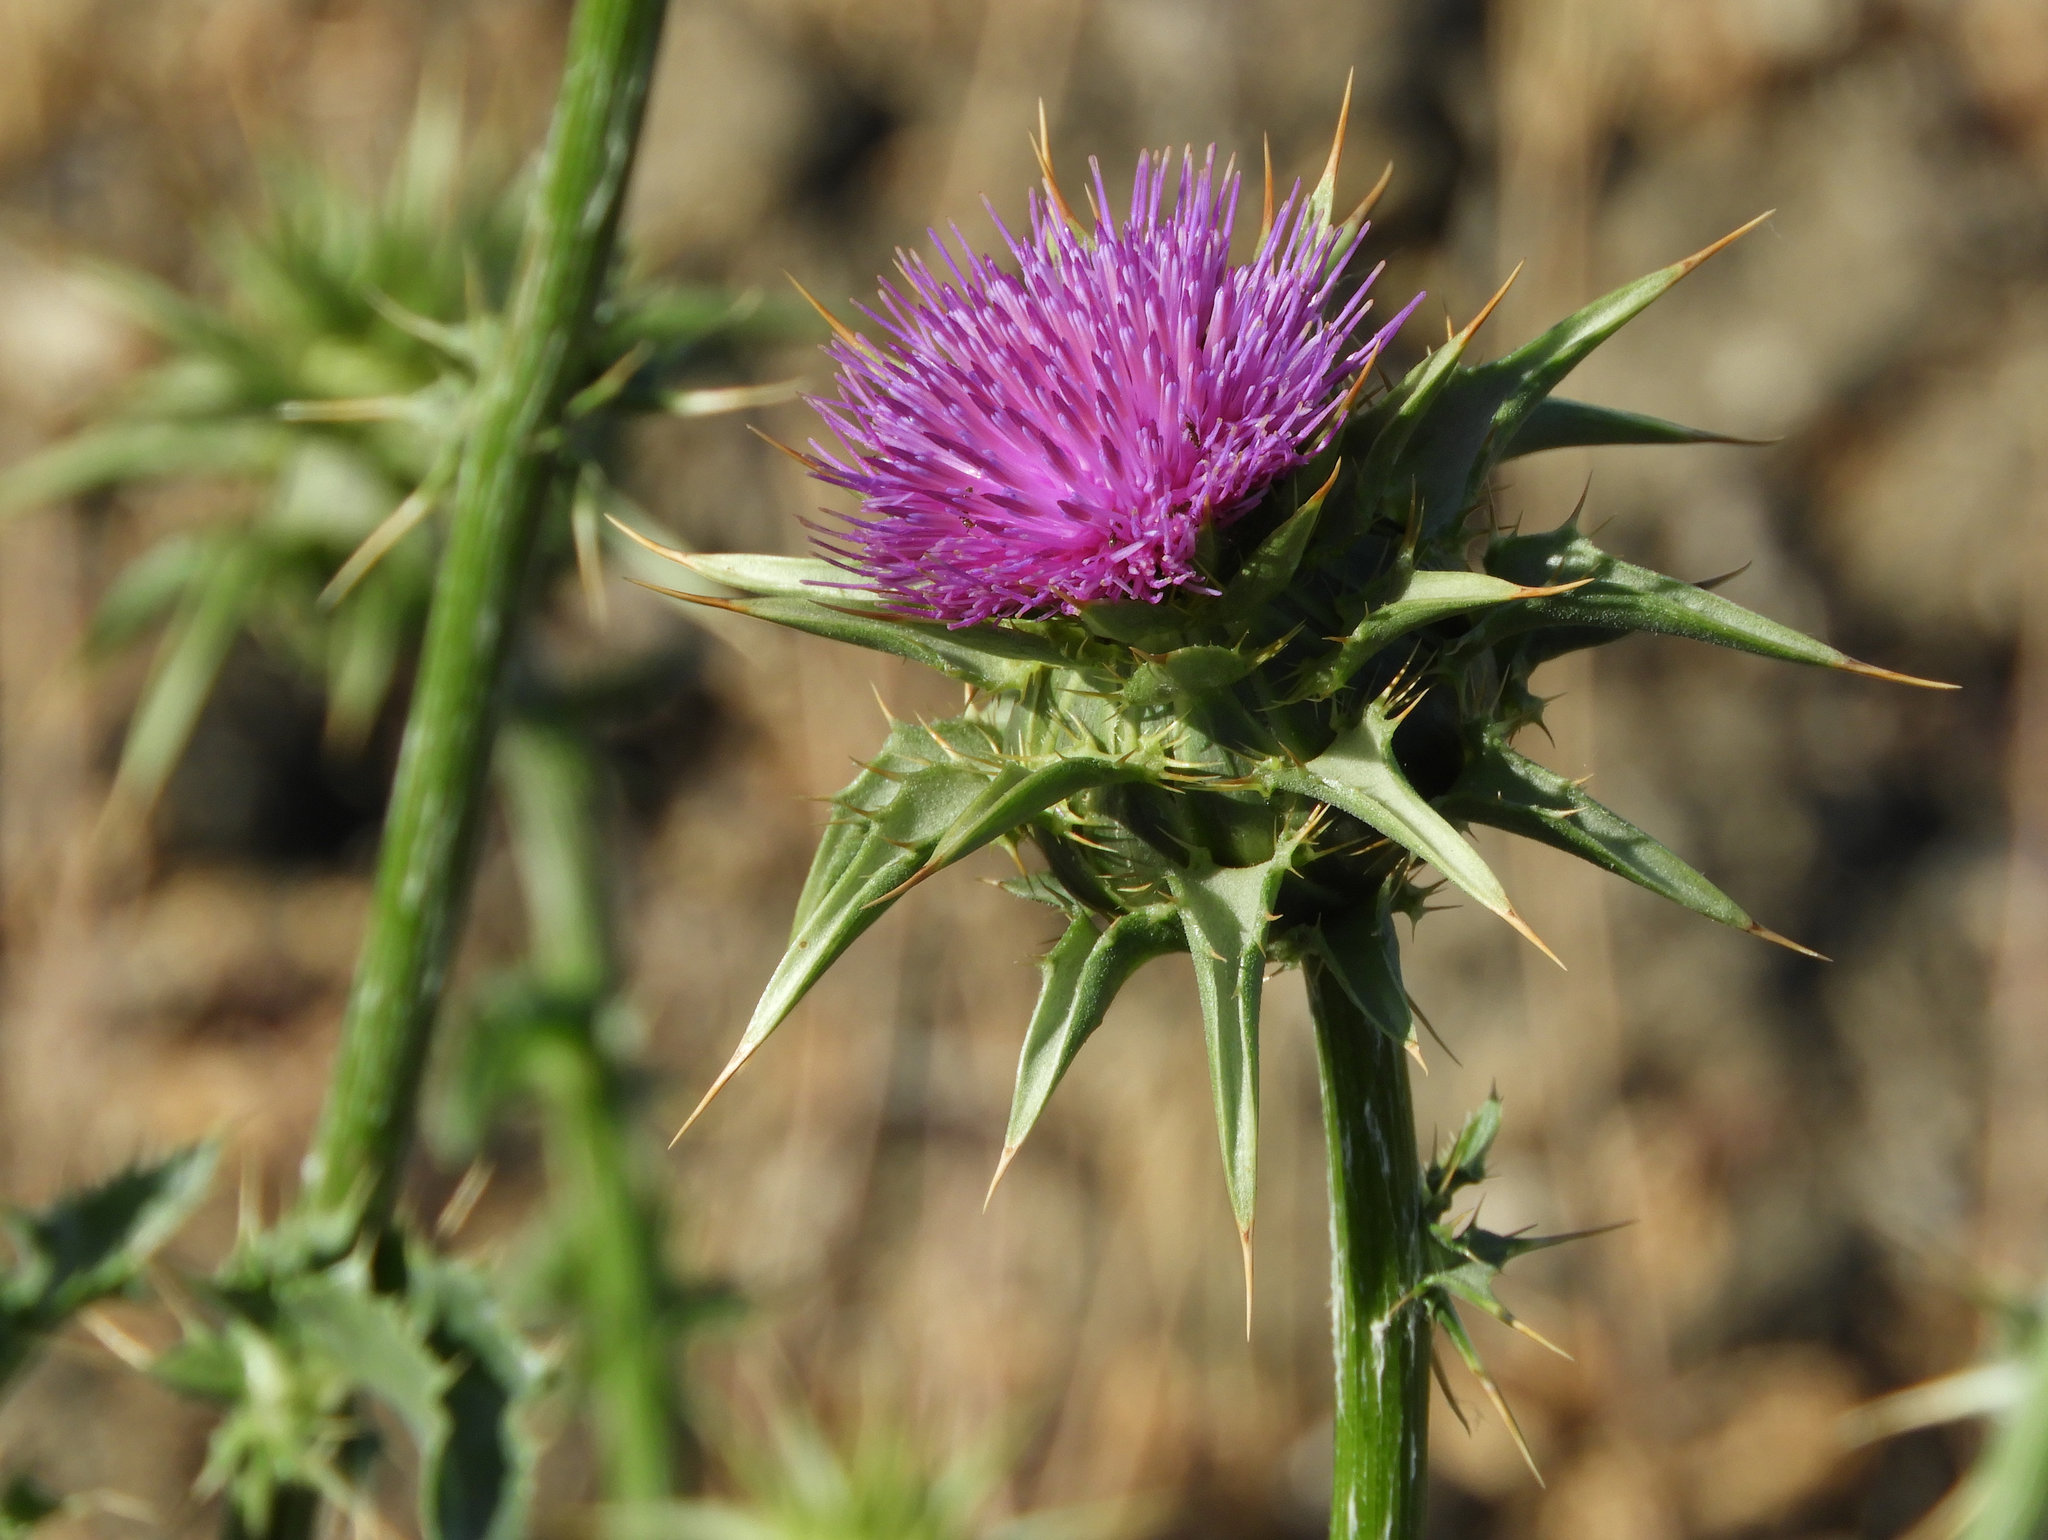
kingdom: Plantae
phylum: Tracheophyta
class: Magnoliopsida
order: Asterales
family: Asteraceae
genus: Silybum
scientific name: Silybum marianum
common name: Milk thistle
